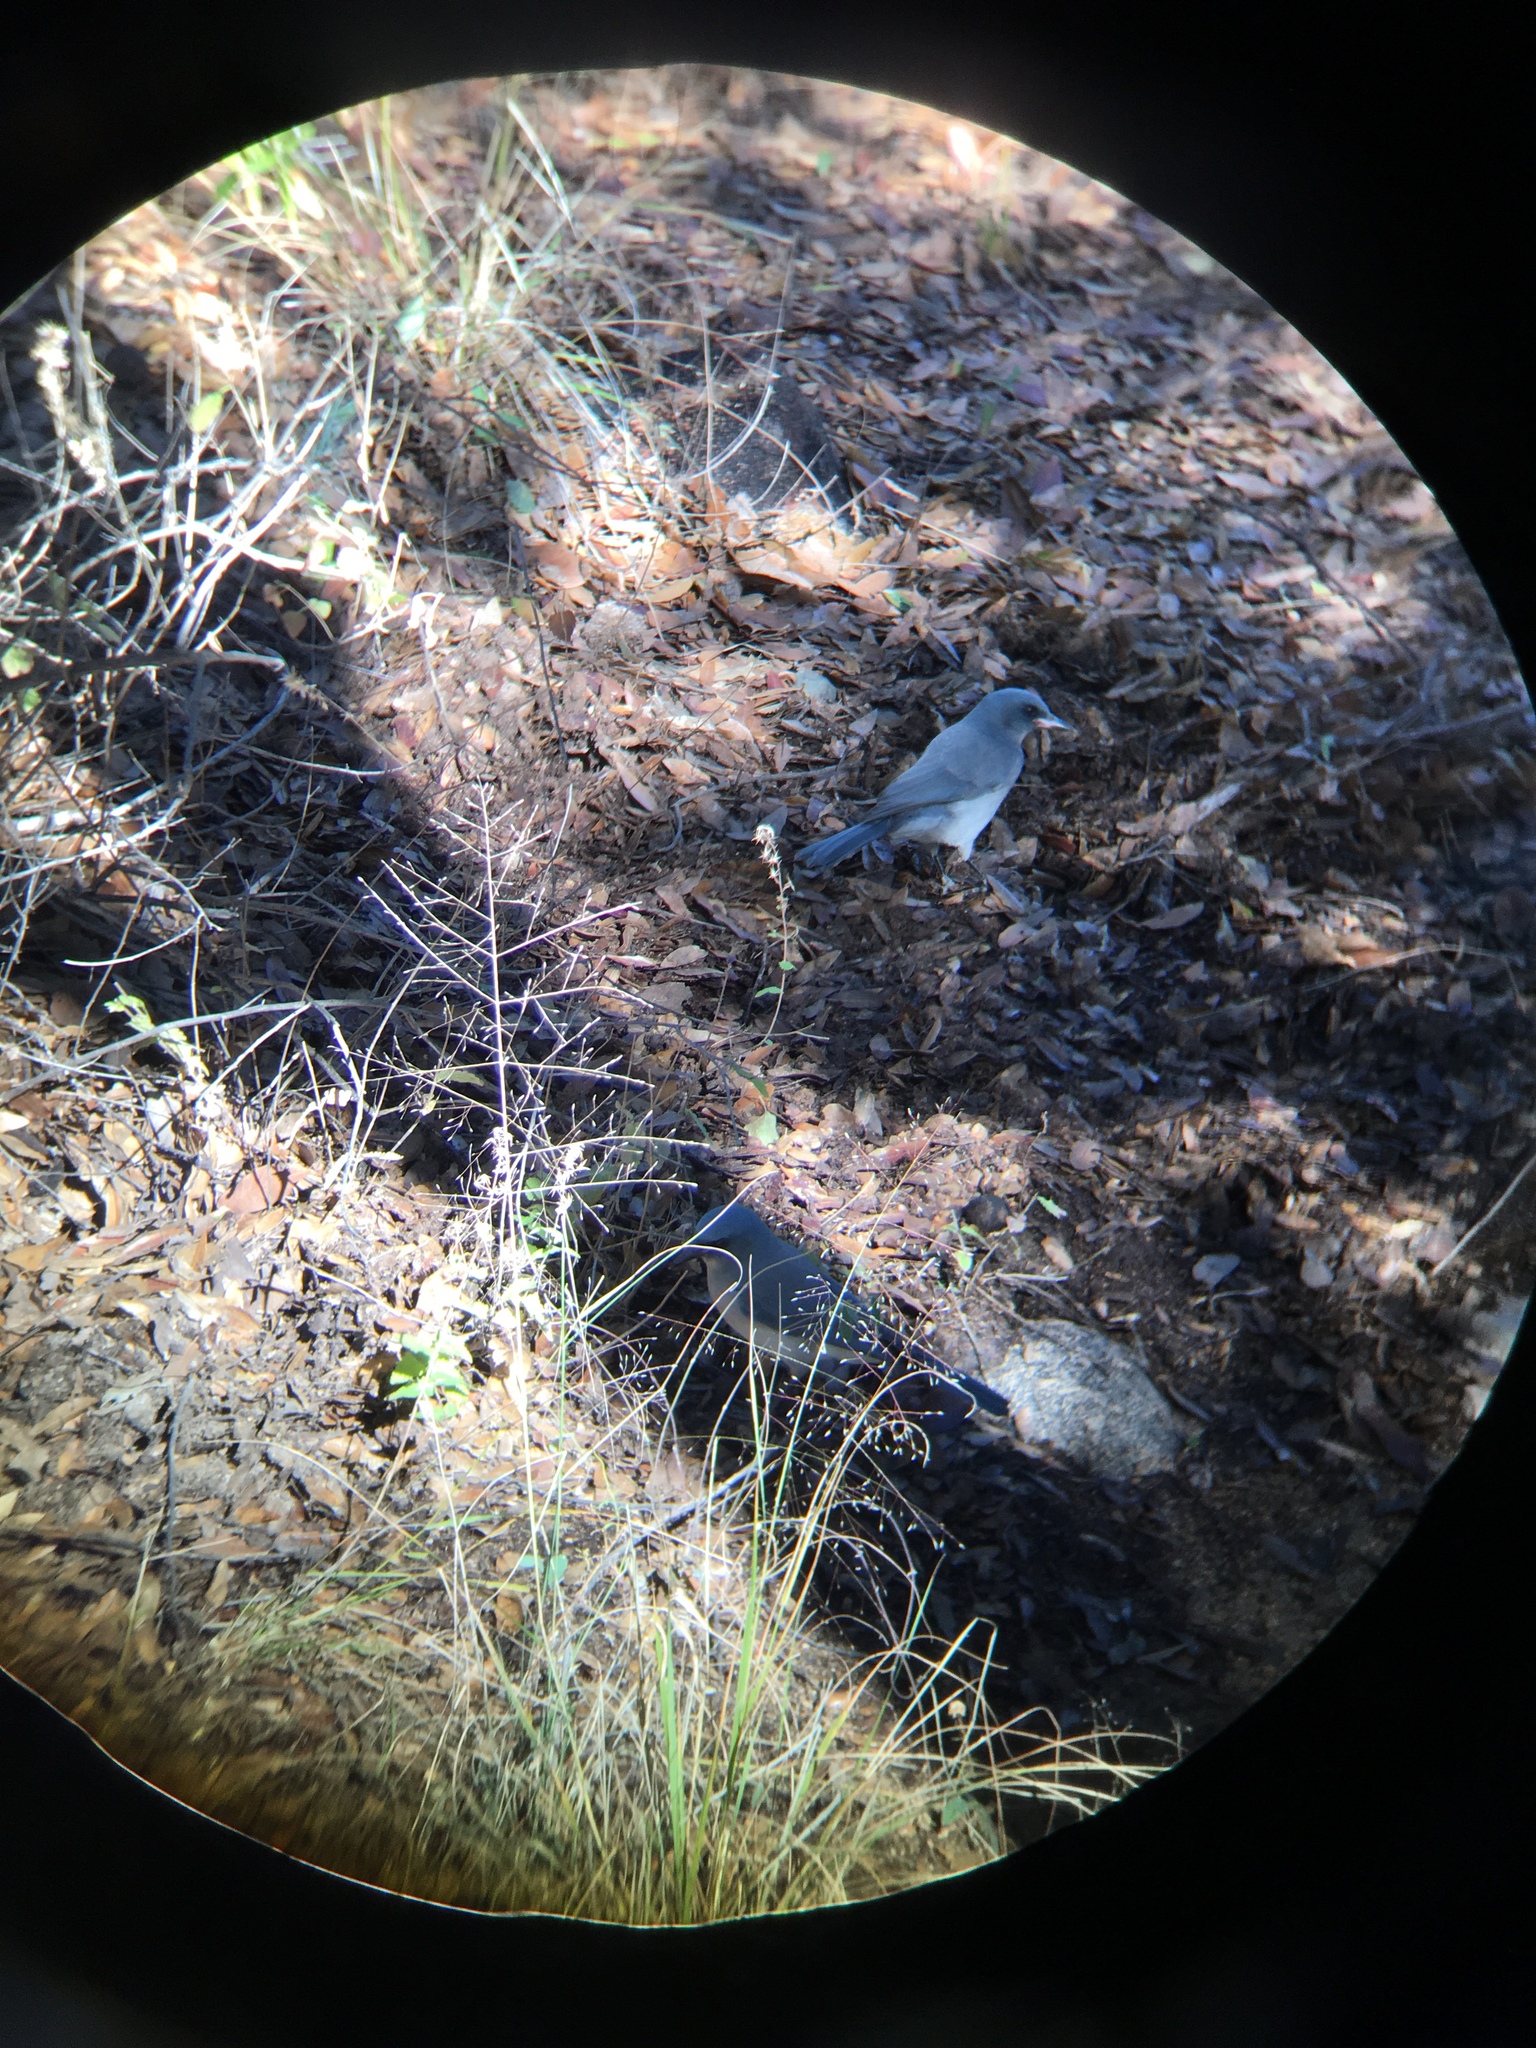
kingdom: Animalia
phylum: Chordata
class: Aves
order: Passeriformes
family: Corvidae
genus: Aphelocoma
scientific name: Aphelocoma wollweberi
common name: Mexican jay
